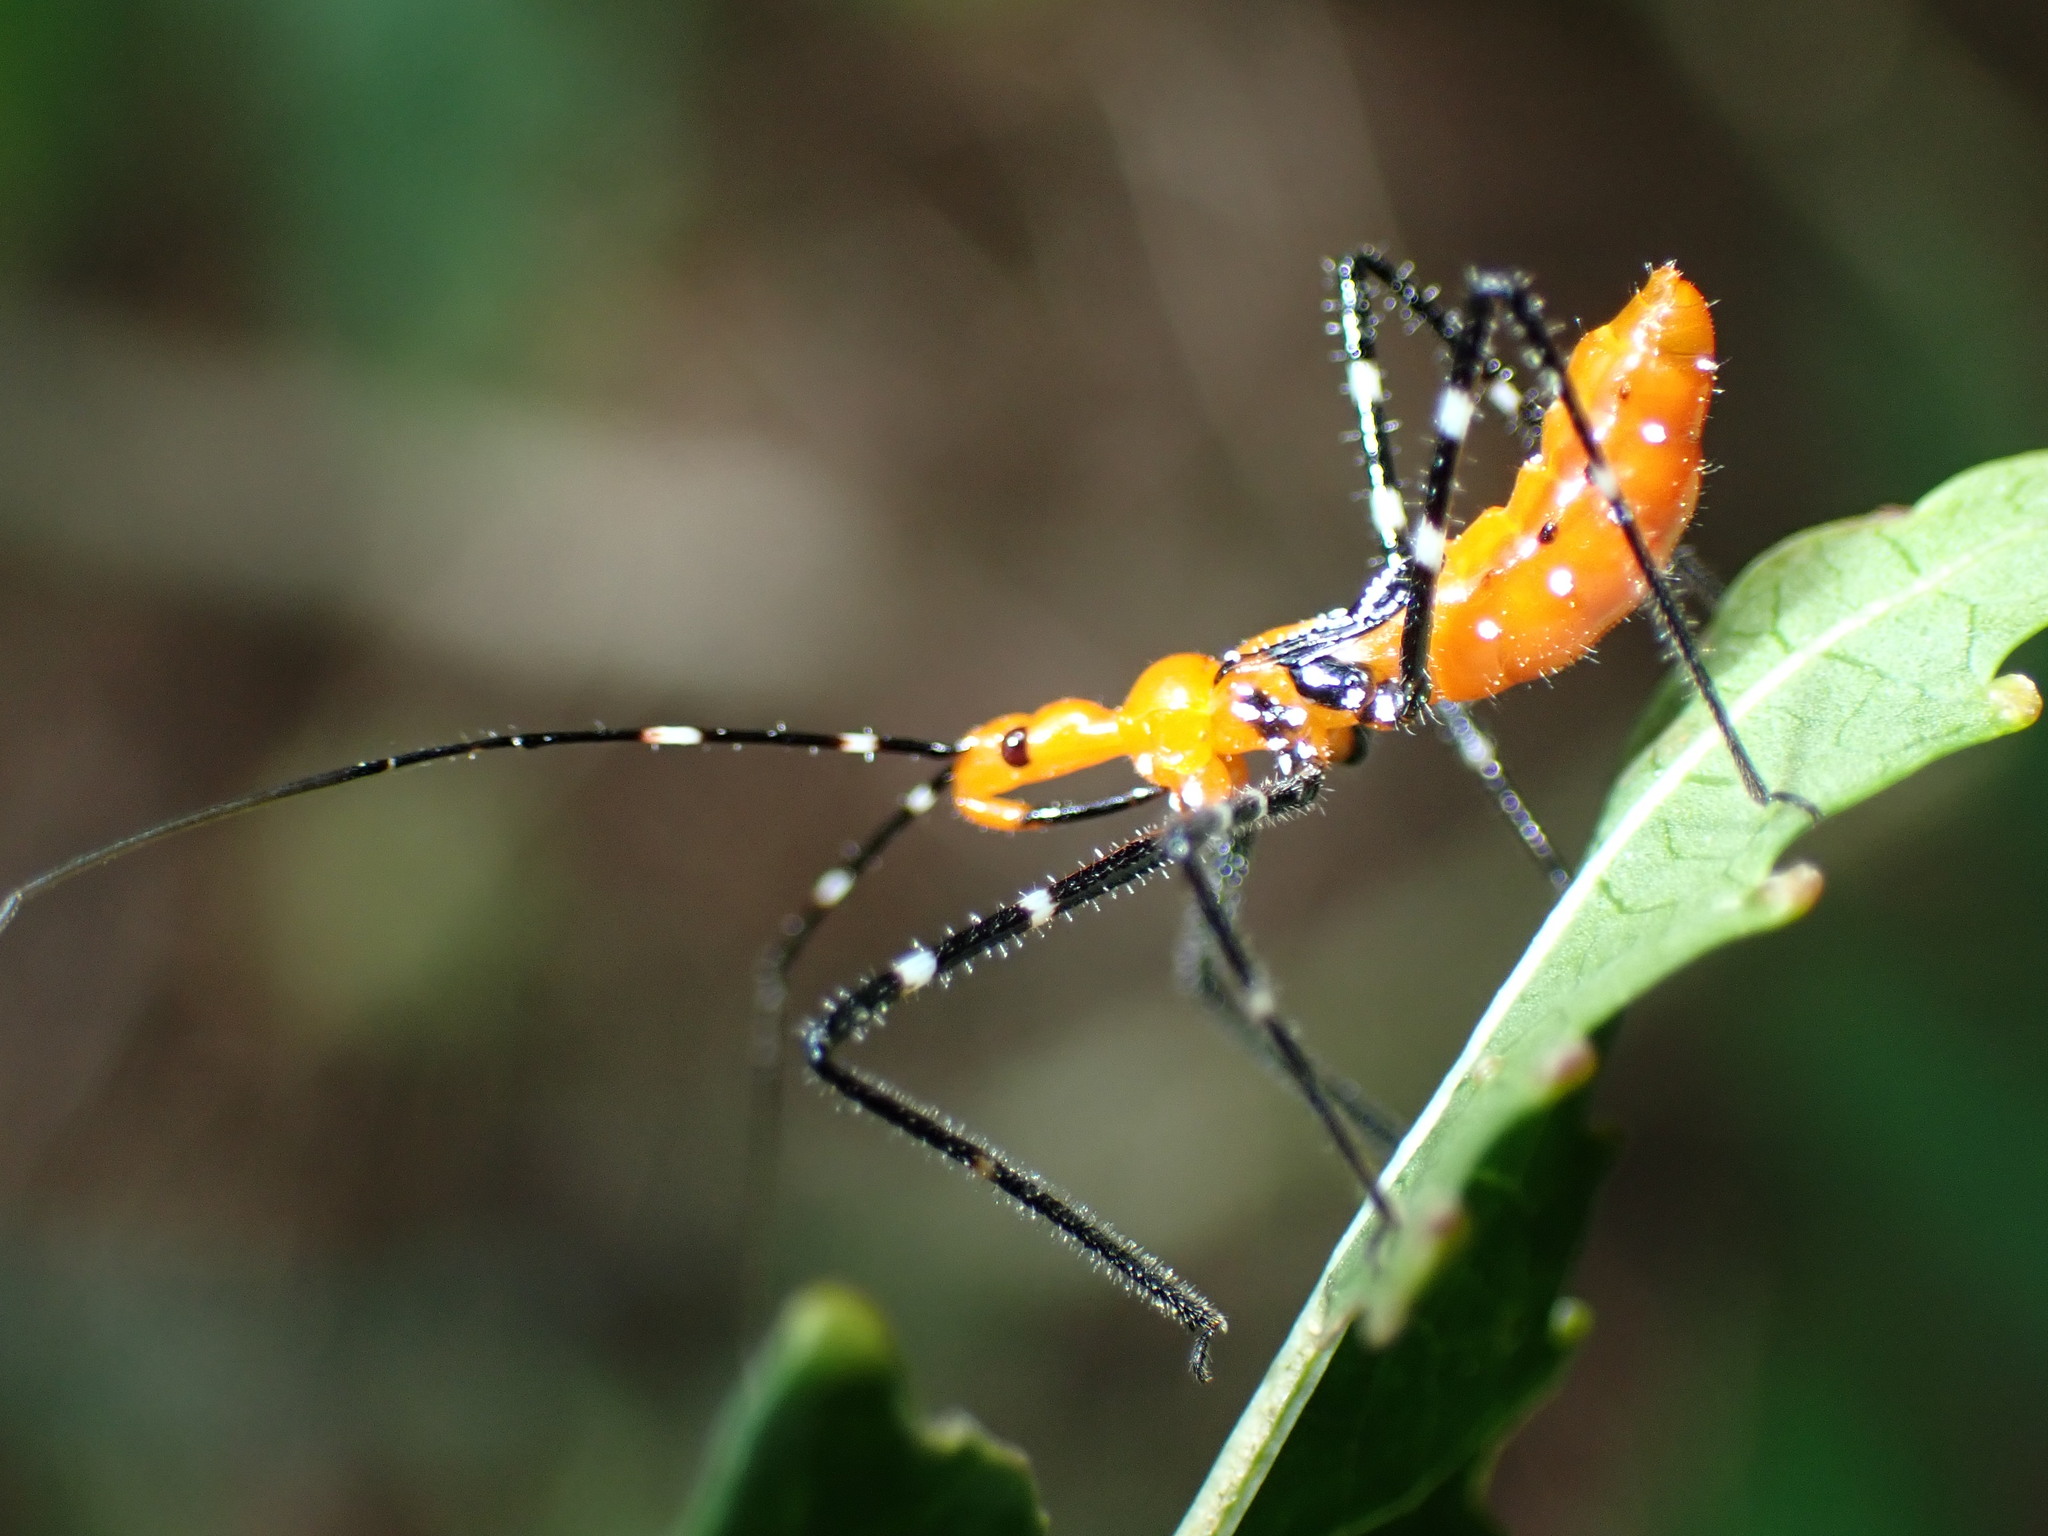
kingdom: Animalia
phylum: Arthropoda
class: Insecta
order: Hemiptera
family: Reduviidae
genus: Zelus
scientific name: Zelus longipes
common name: Milkweed assassin bug
